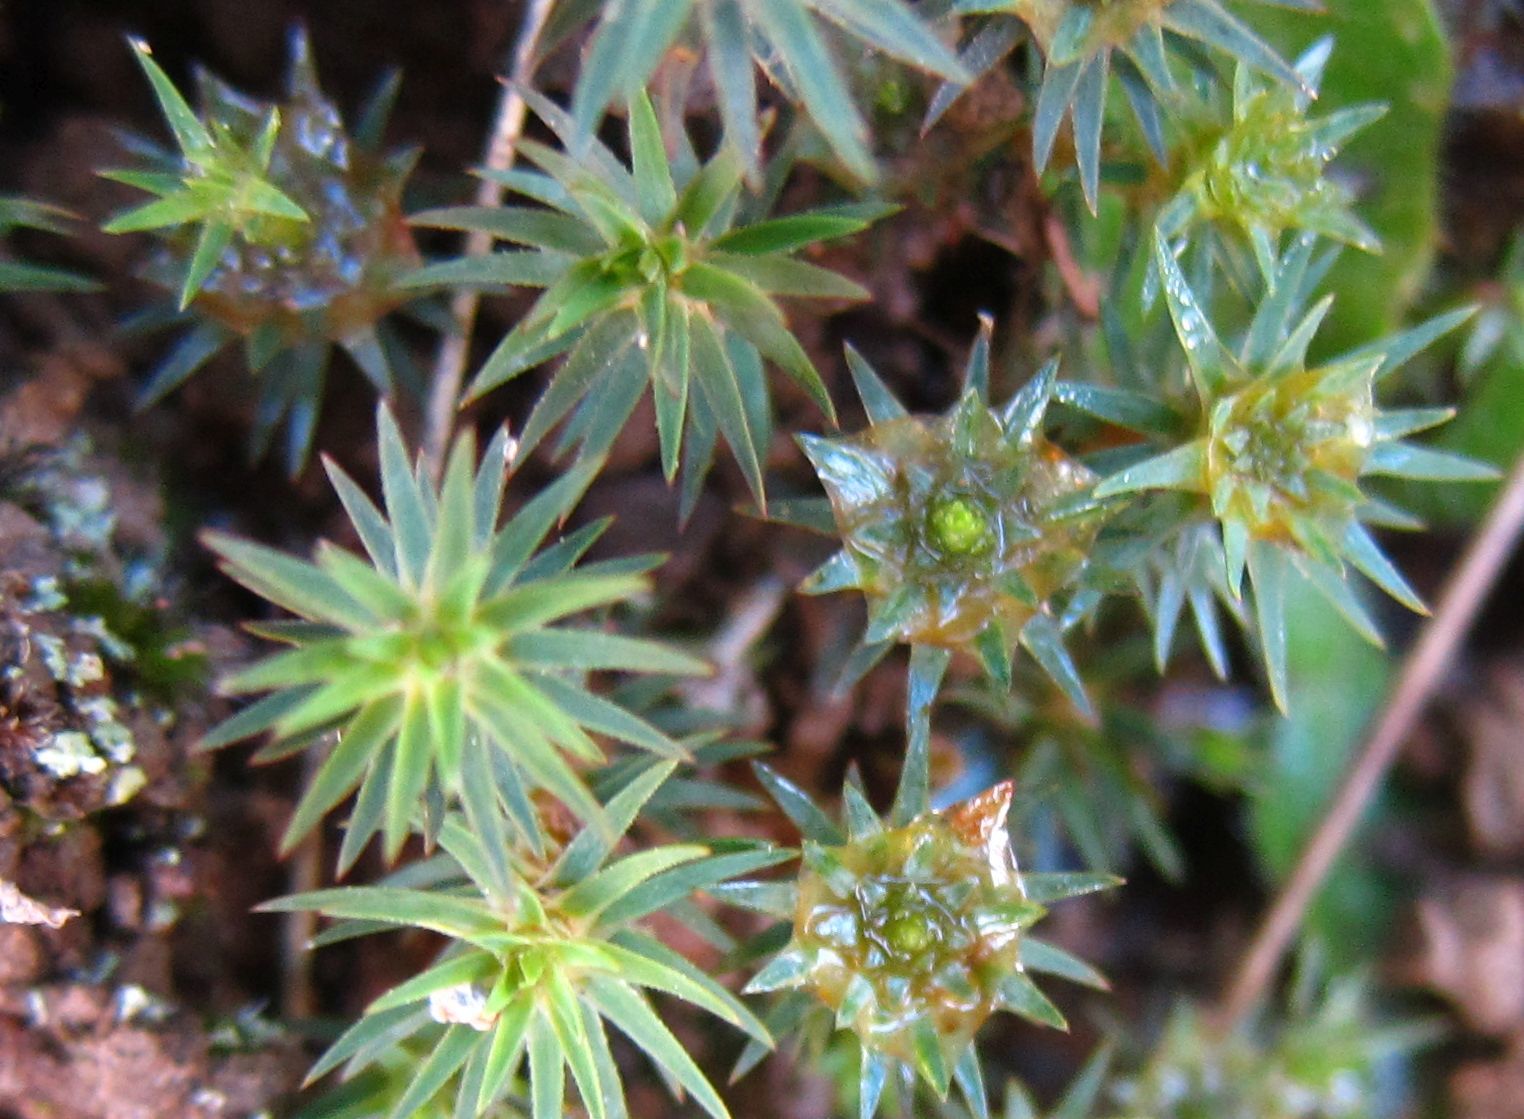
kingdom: Plantae
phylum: Bryophyta
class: Polytrichopsida
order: Polytrichales
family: Polytrichaceae
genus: Polytrichadelphus
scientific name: Polytrichadelphus magellanicus
